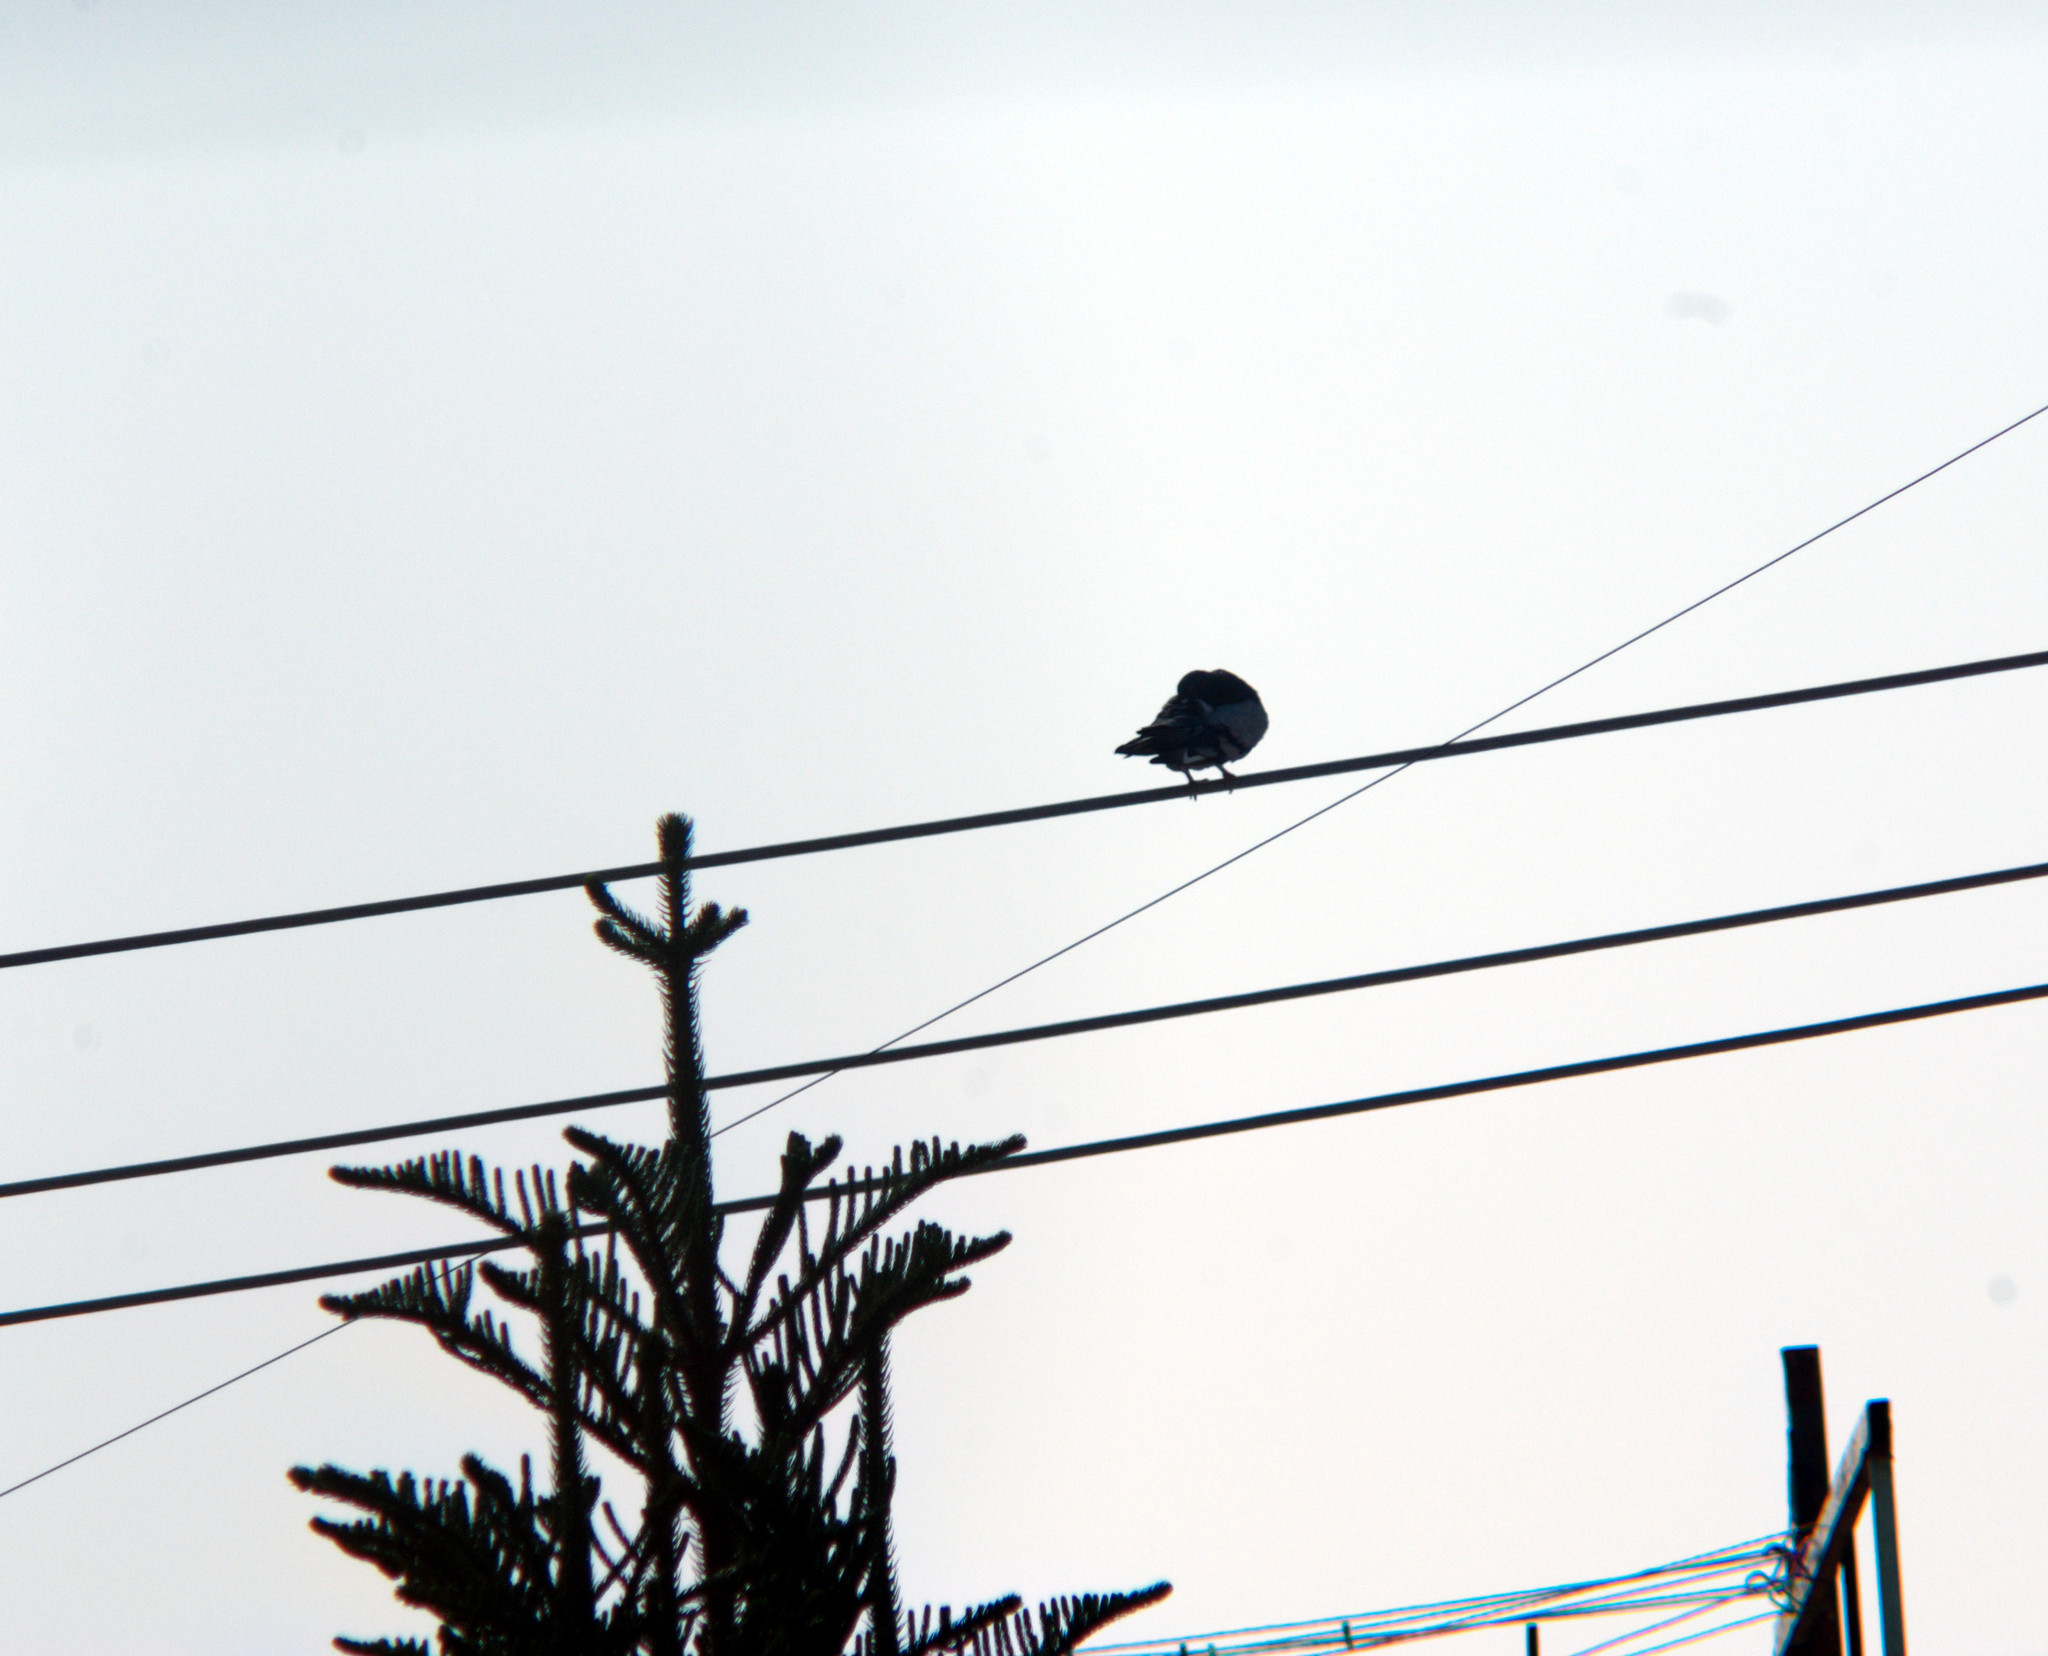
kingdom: Animalia
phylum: Chordata
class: Aves
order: Columbiformes
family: Columbidae
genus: Columba
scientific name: Columba livia
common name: Rock pigeon
